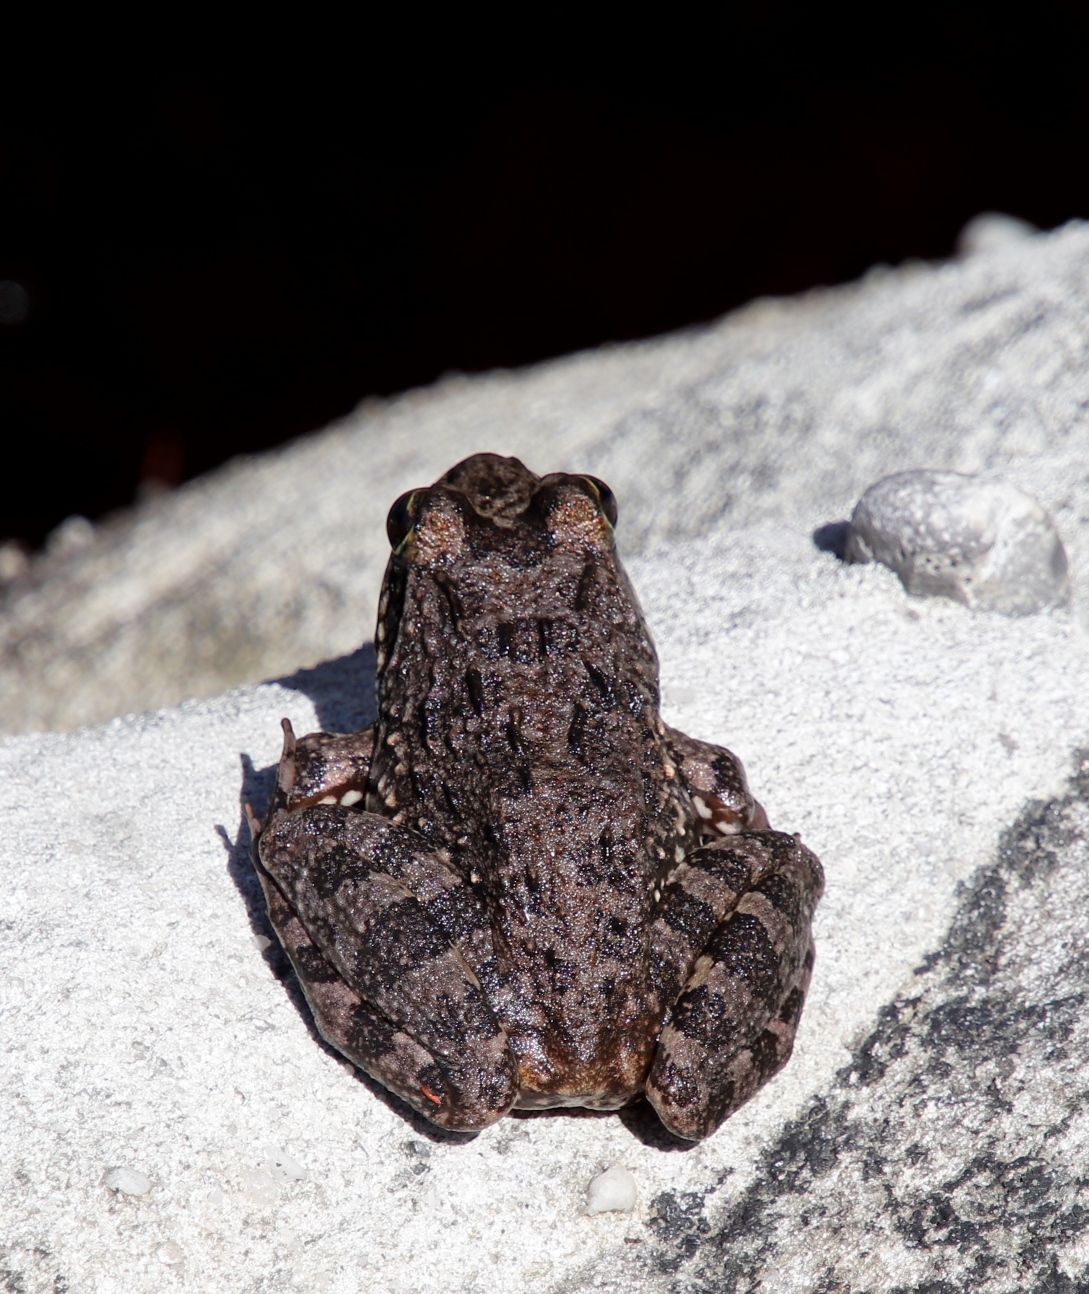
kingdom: Animalia
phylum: Chordata
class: Amphibia
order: Anura
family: Pyxicephalidae
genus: Amietia
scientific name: Amietia fuscigula
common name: Cape rana
